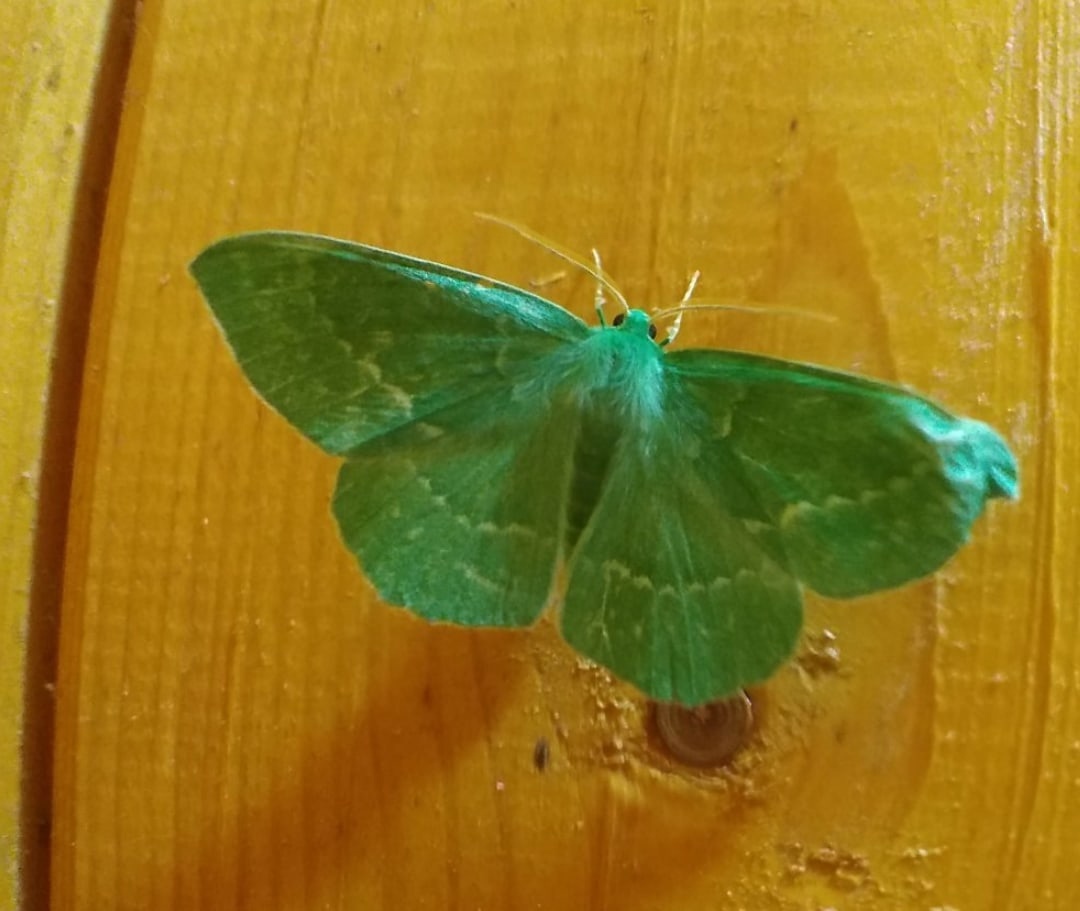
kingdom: Animalia
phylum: Arthropoda
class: Insecta
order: Lepidoptera
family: Geometridae
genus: Geometra
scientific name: Geometra papilionaria
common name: Large emerald
